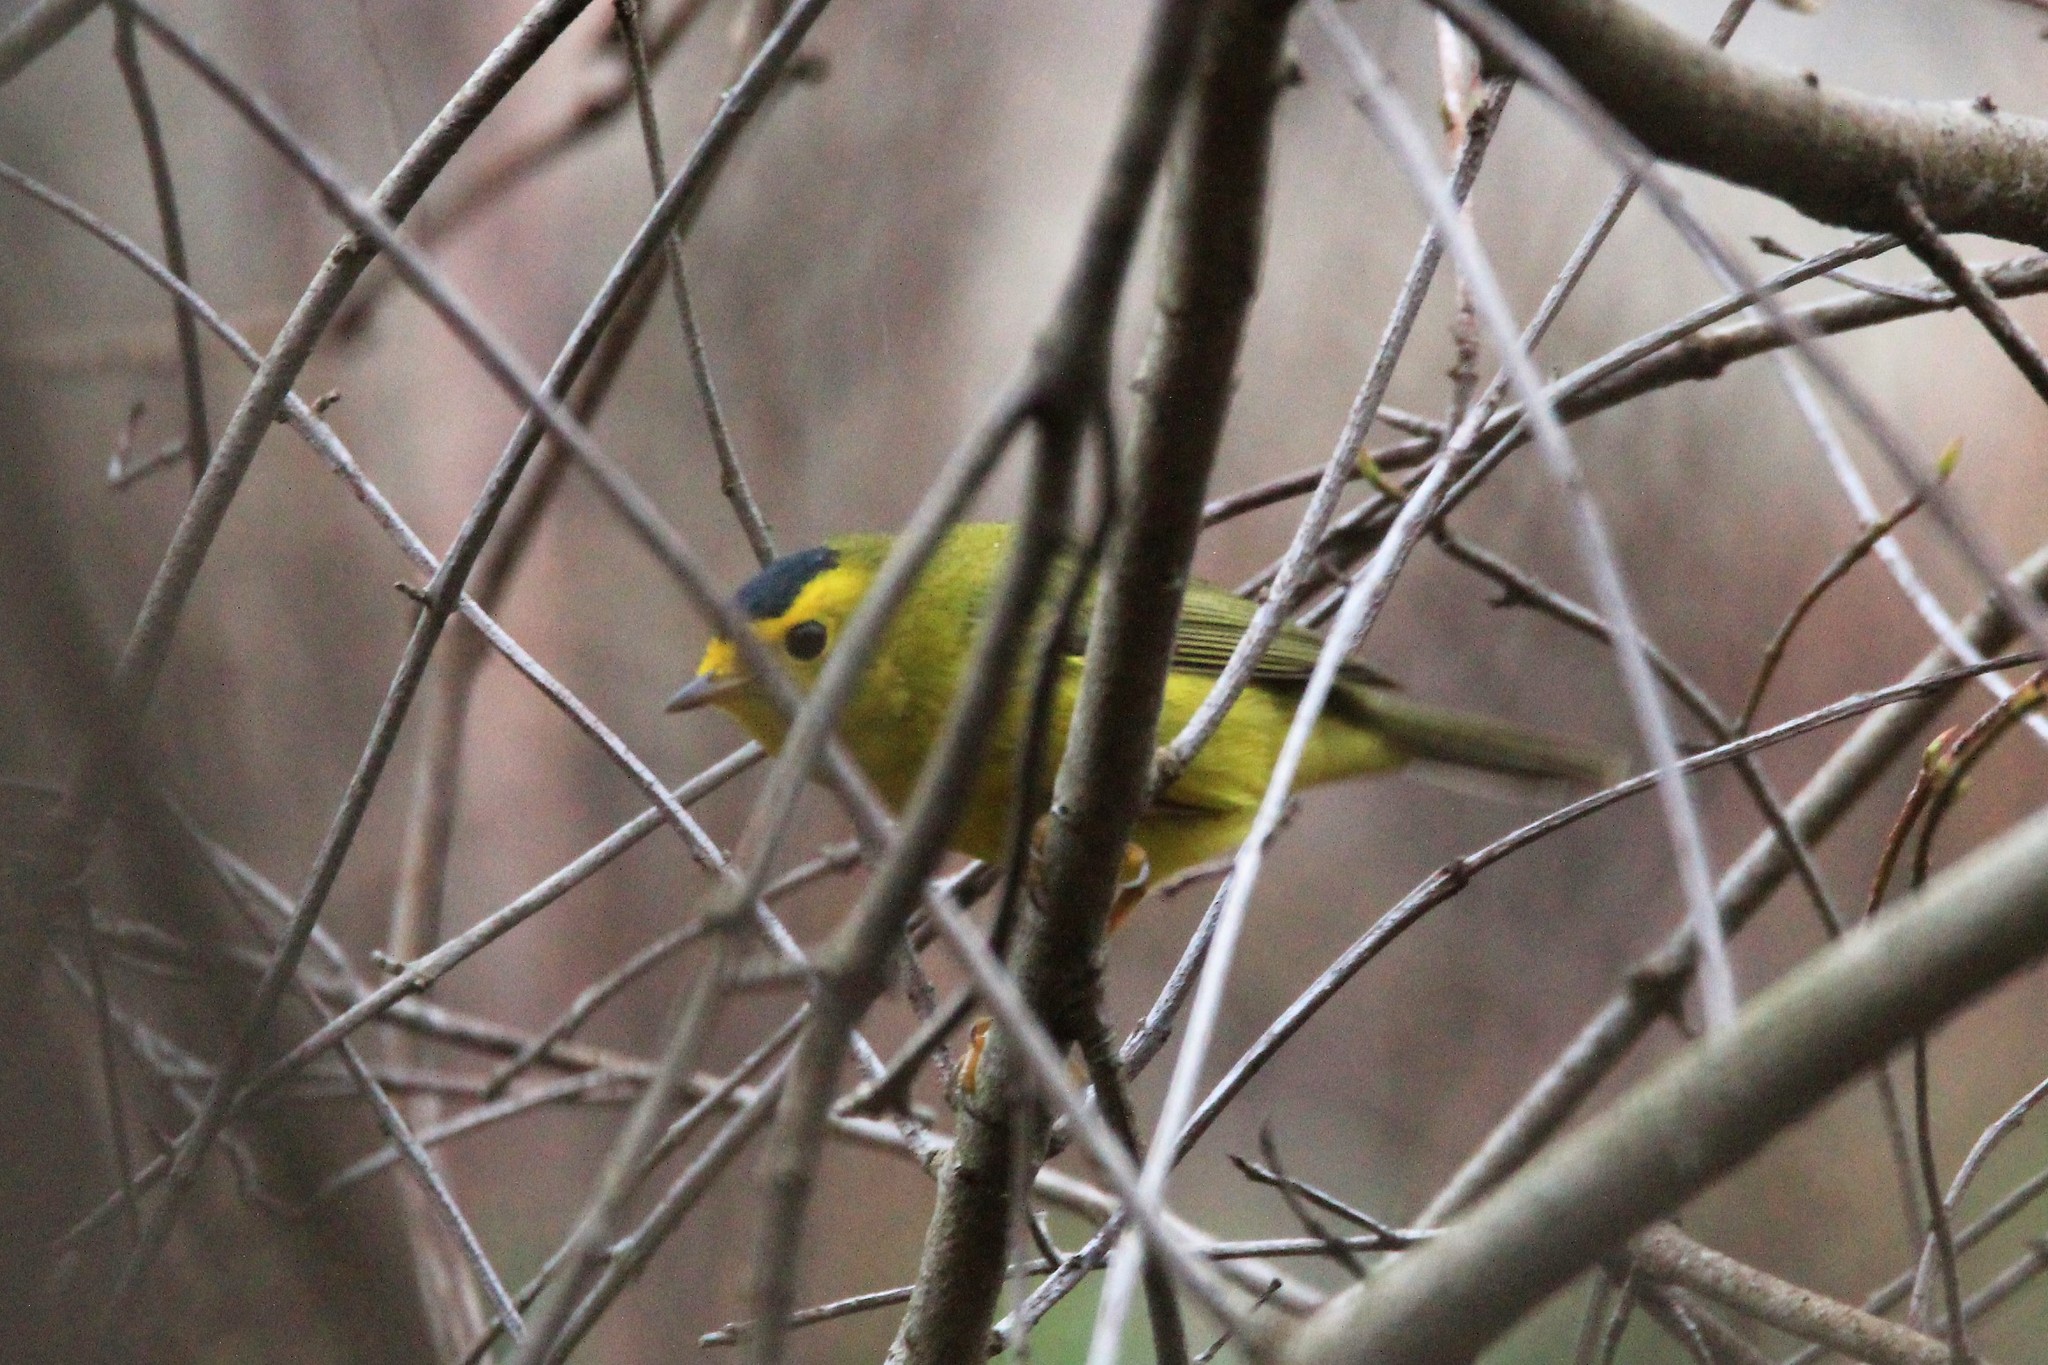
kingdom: Animalia
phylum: Chordata
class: Aves
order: Passeriformes
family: Parulidae
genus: Cardellina
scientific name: Cardellina pusilla
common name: Wilson's warbler
